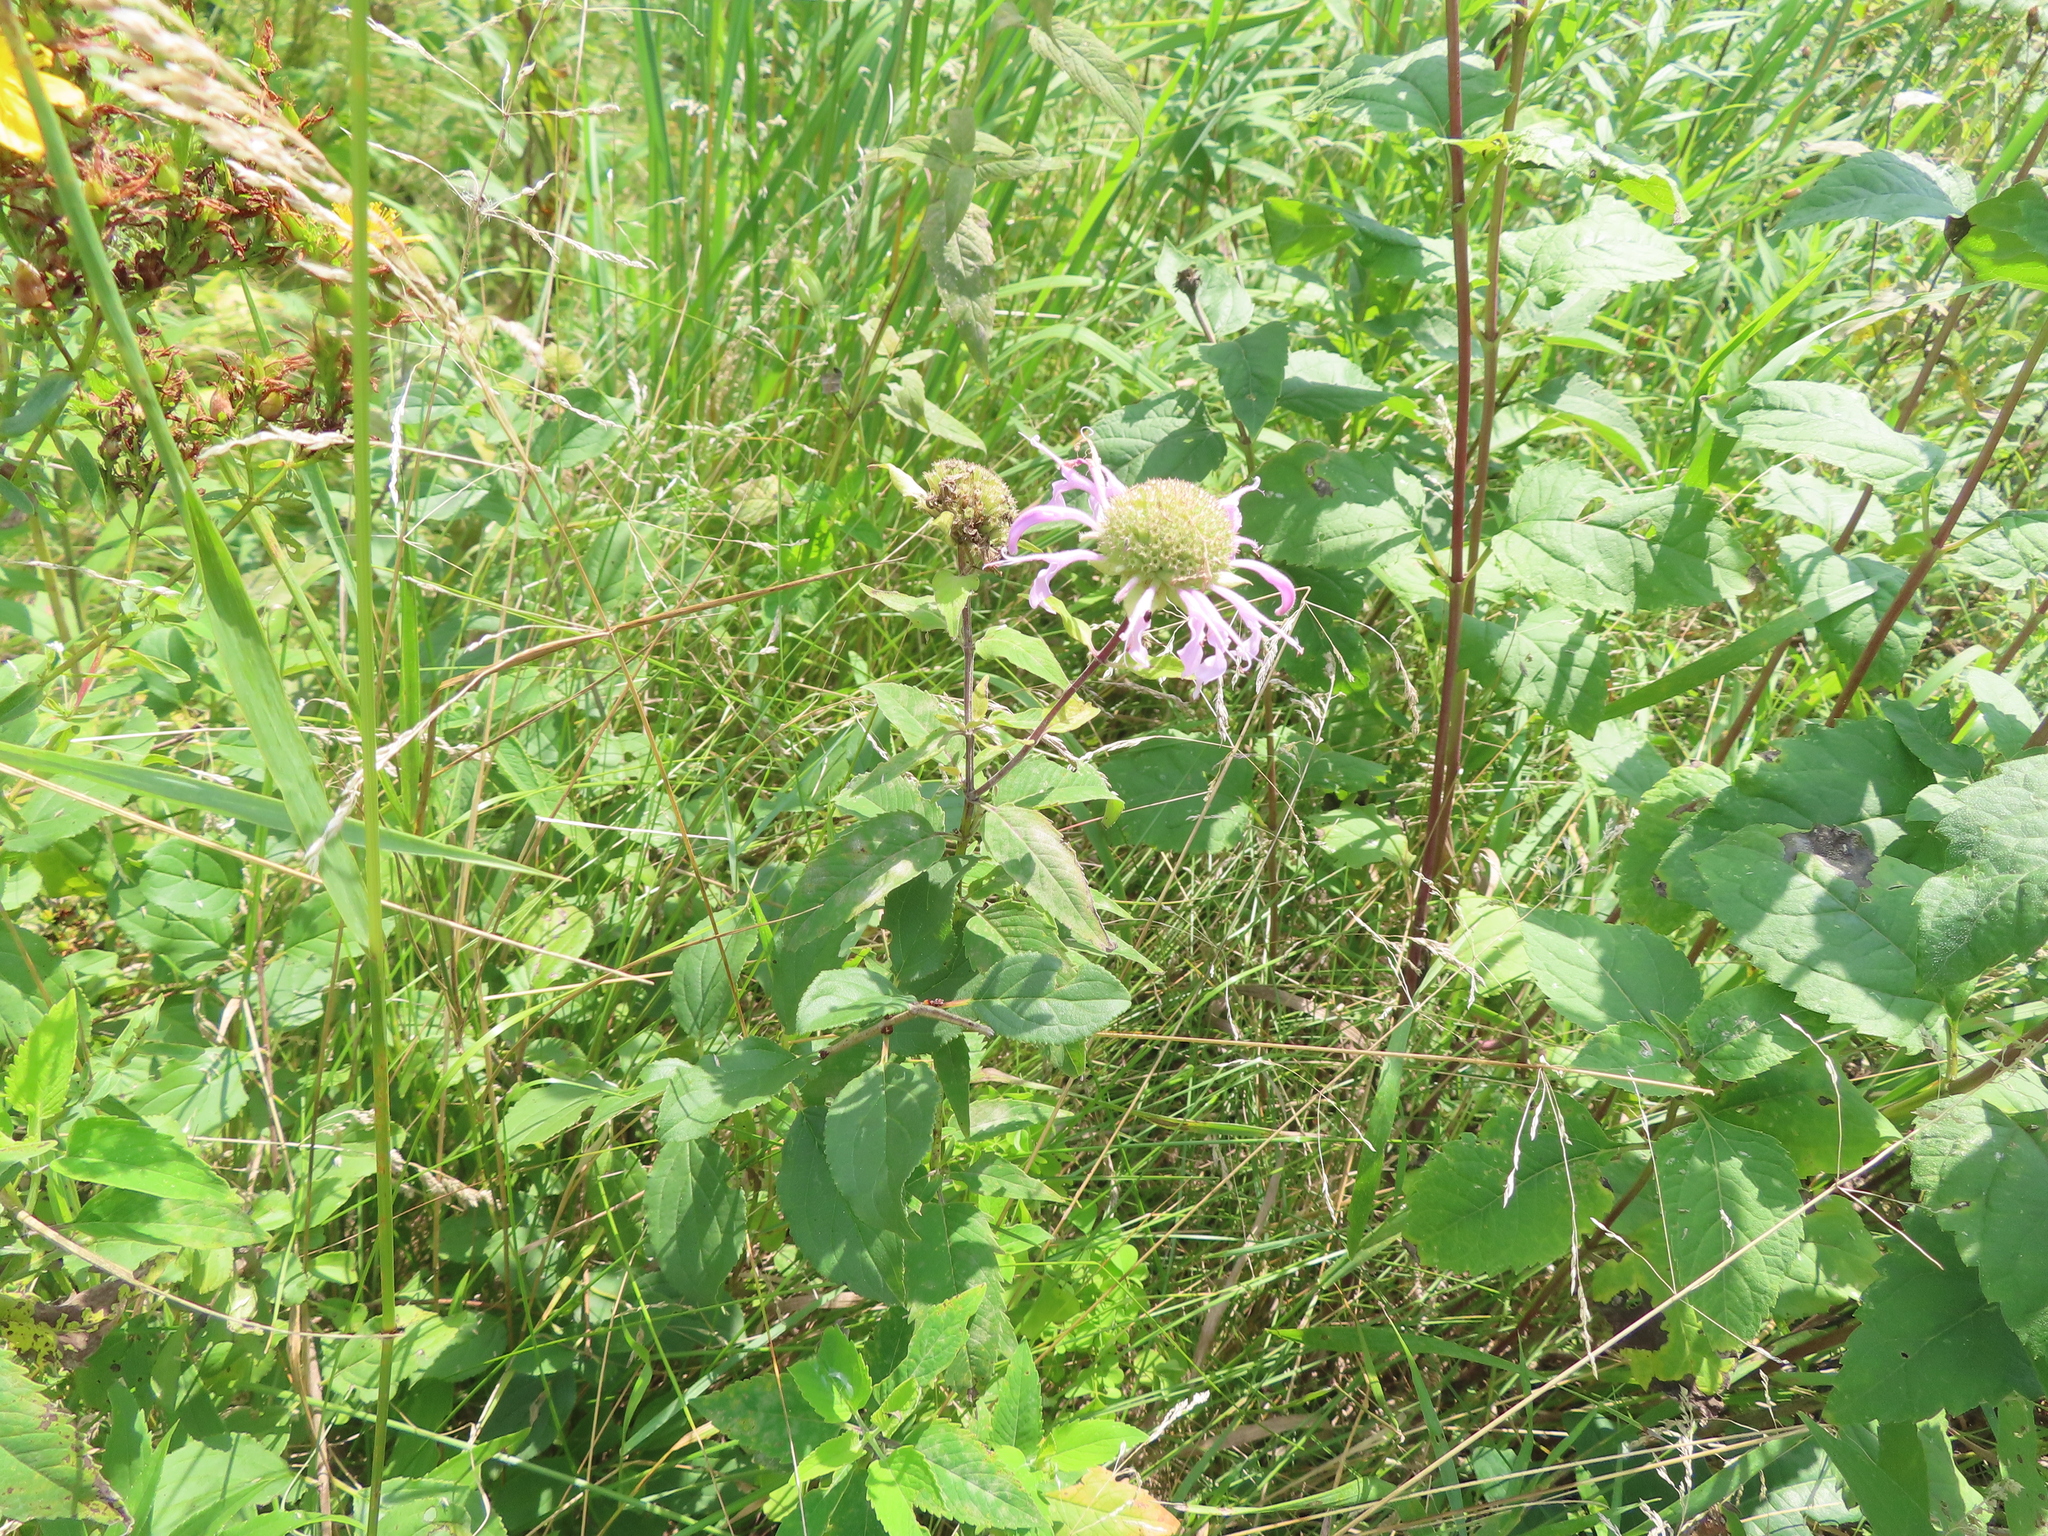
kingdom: Plantae
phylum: Tracheophyta
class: Magnoliopsida
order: Lamiales
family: Lamiaceae
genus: Monarda
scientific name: Monarda fistulosa
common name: Purple beebalm
